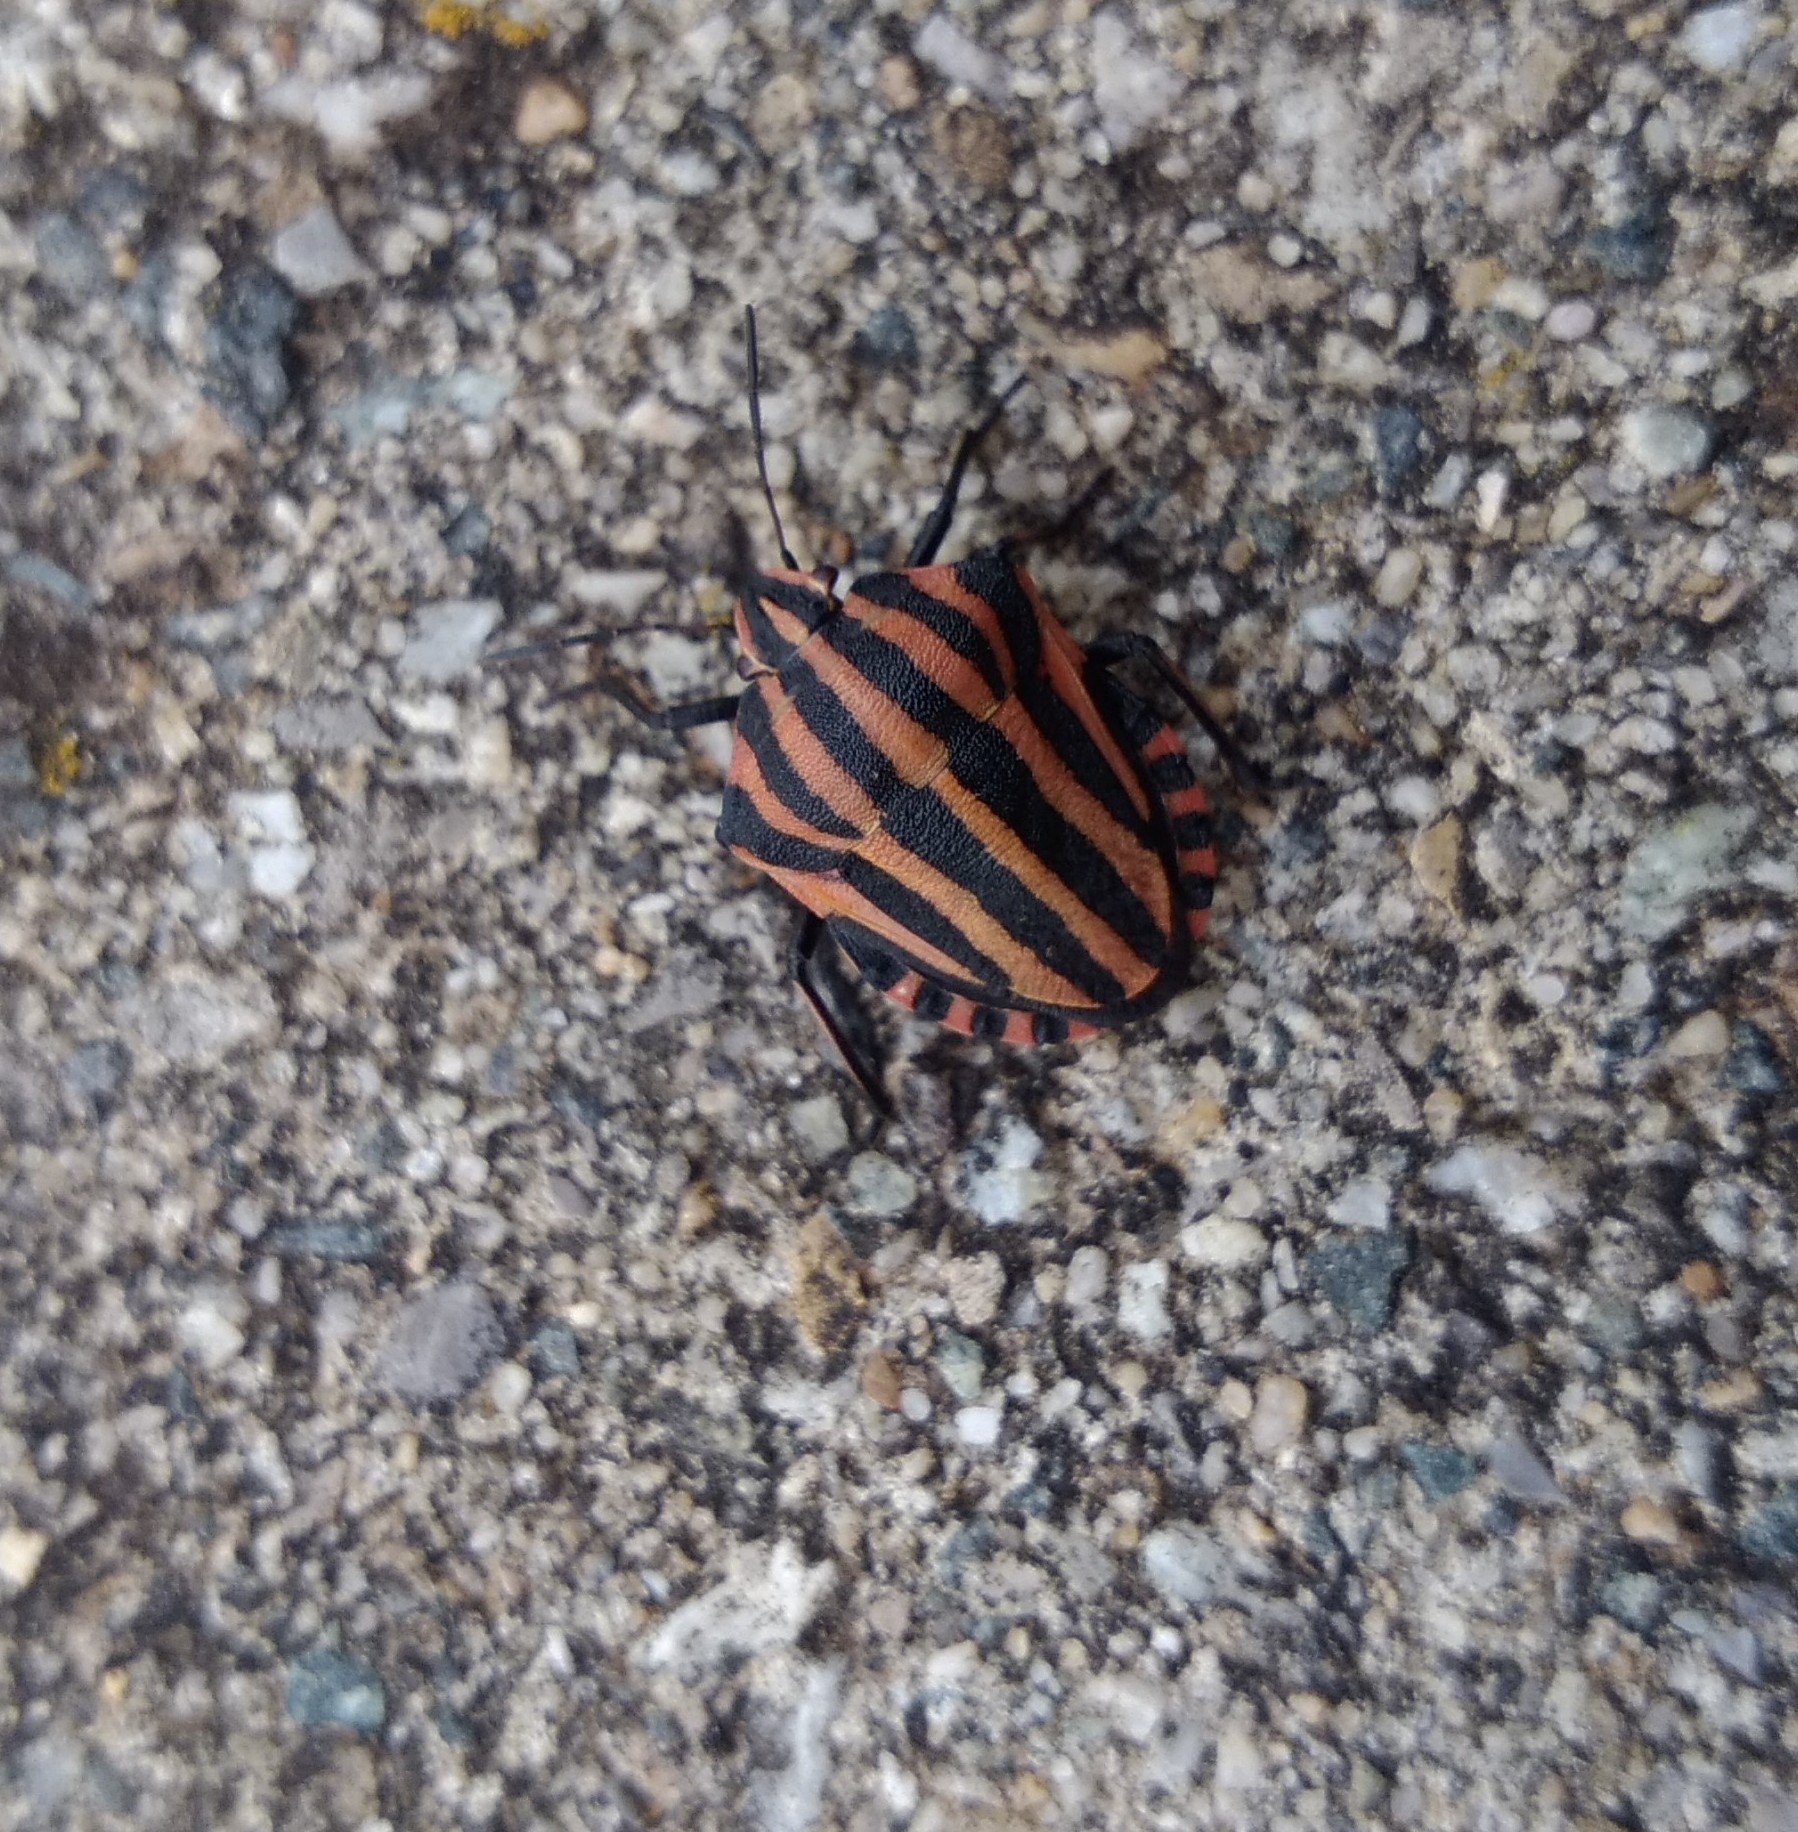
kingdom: Animalia
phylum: Arthropoda
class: Insecta
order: Hemiptera
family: Pentatomidae
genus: Graphosoma
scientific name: Graphosoma italicum
